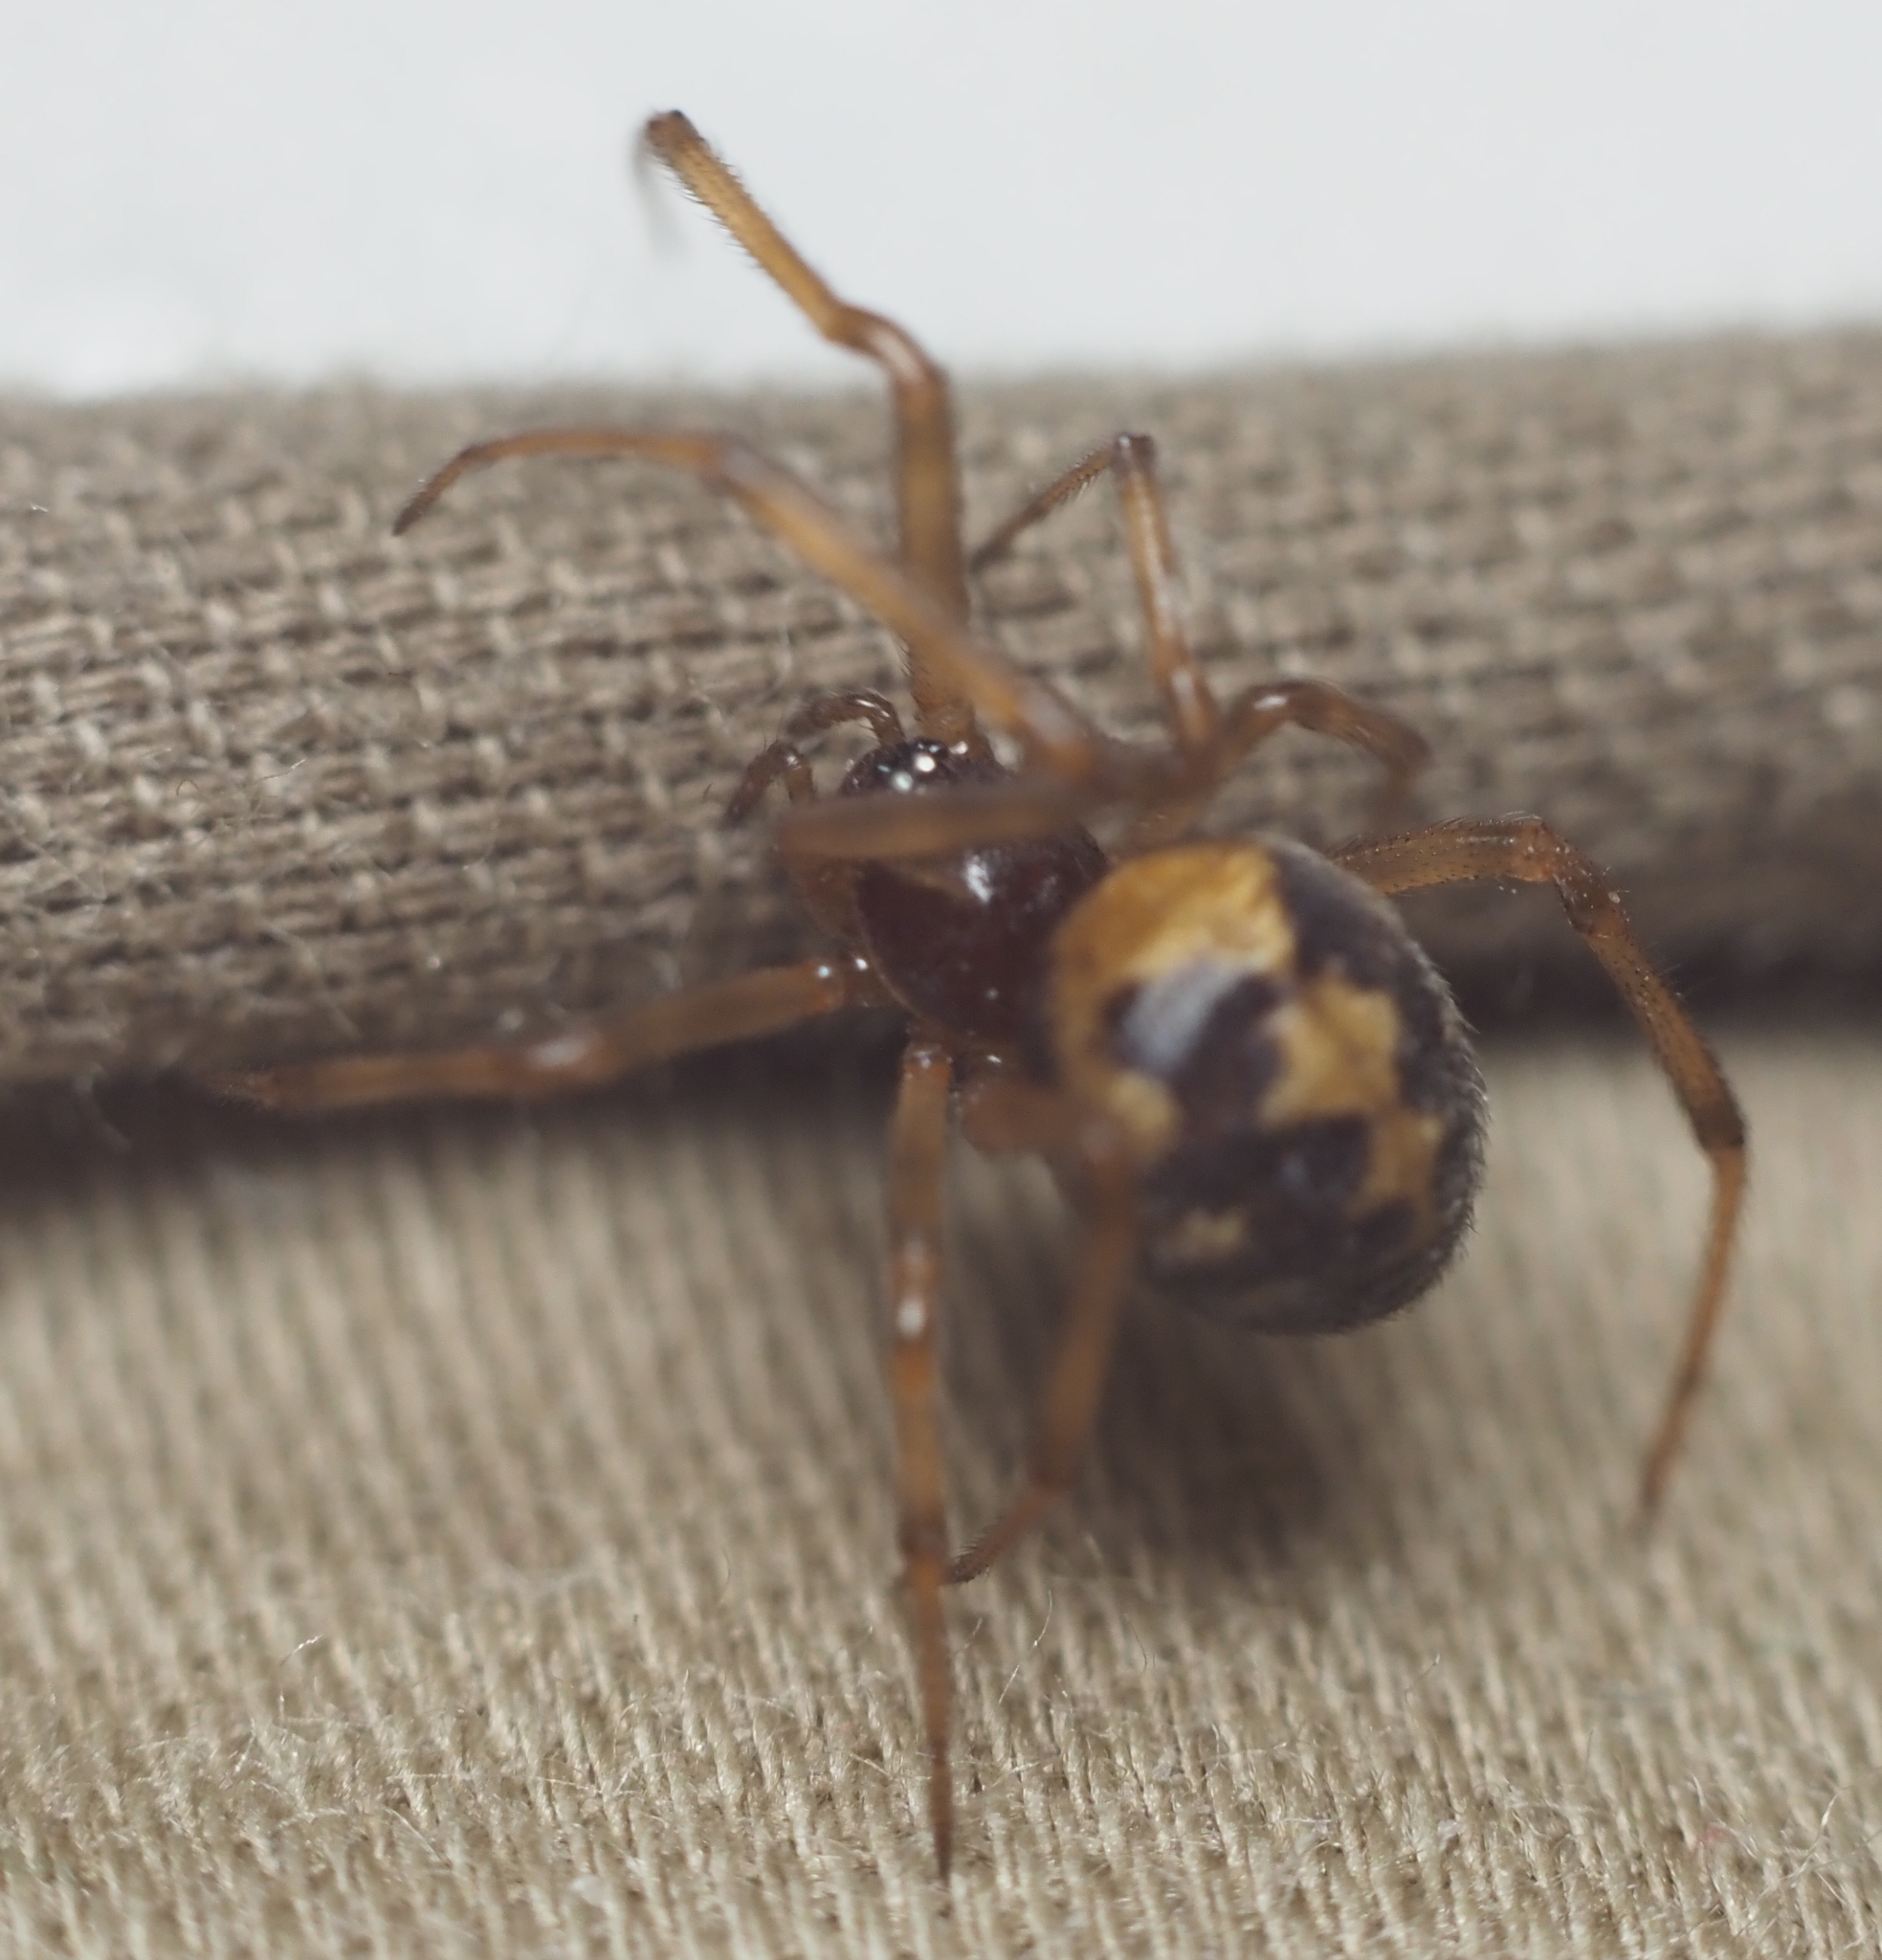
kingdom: Animalia
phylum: Arthropoda
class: Arachnida
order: Araneae
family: Theridiidae
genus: Steatoda
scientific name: Steatoda triangulosa
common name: Triangulate bud spider
